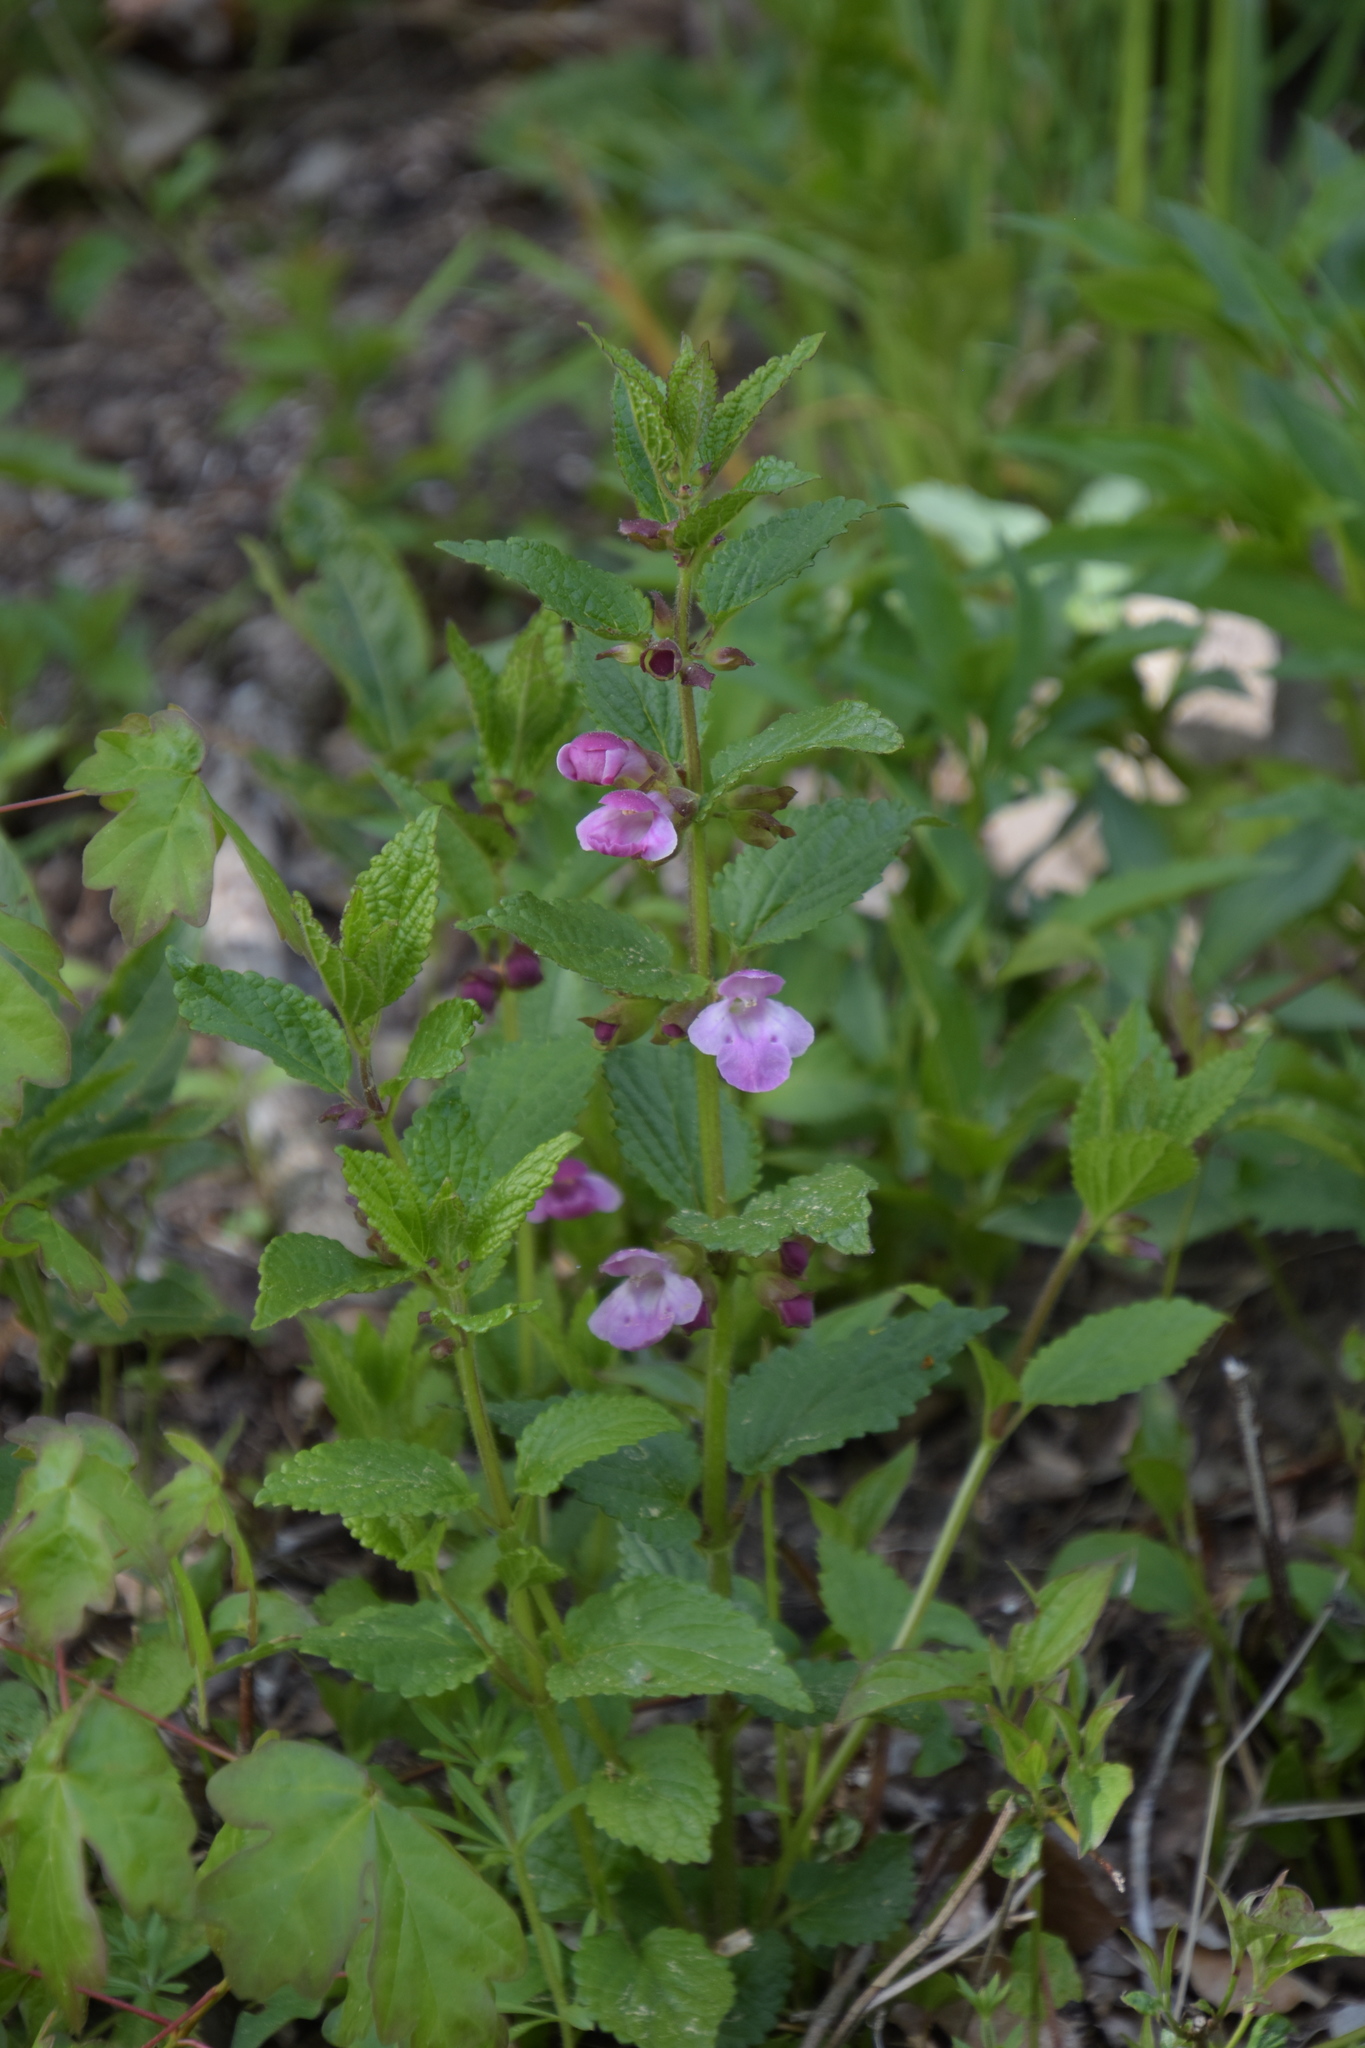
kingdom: Plantae
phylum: Tracheophyta
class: Magnoliopsida
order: Lamiales
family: Lamiaceae
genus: Melittis
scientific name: Melittis melissophyllum
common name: Bastard balm
